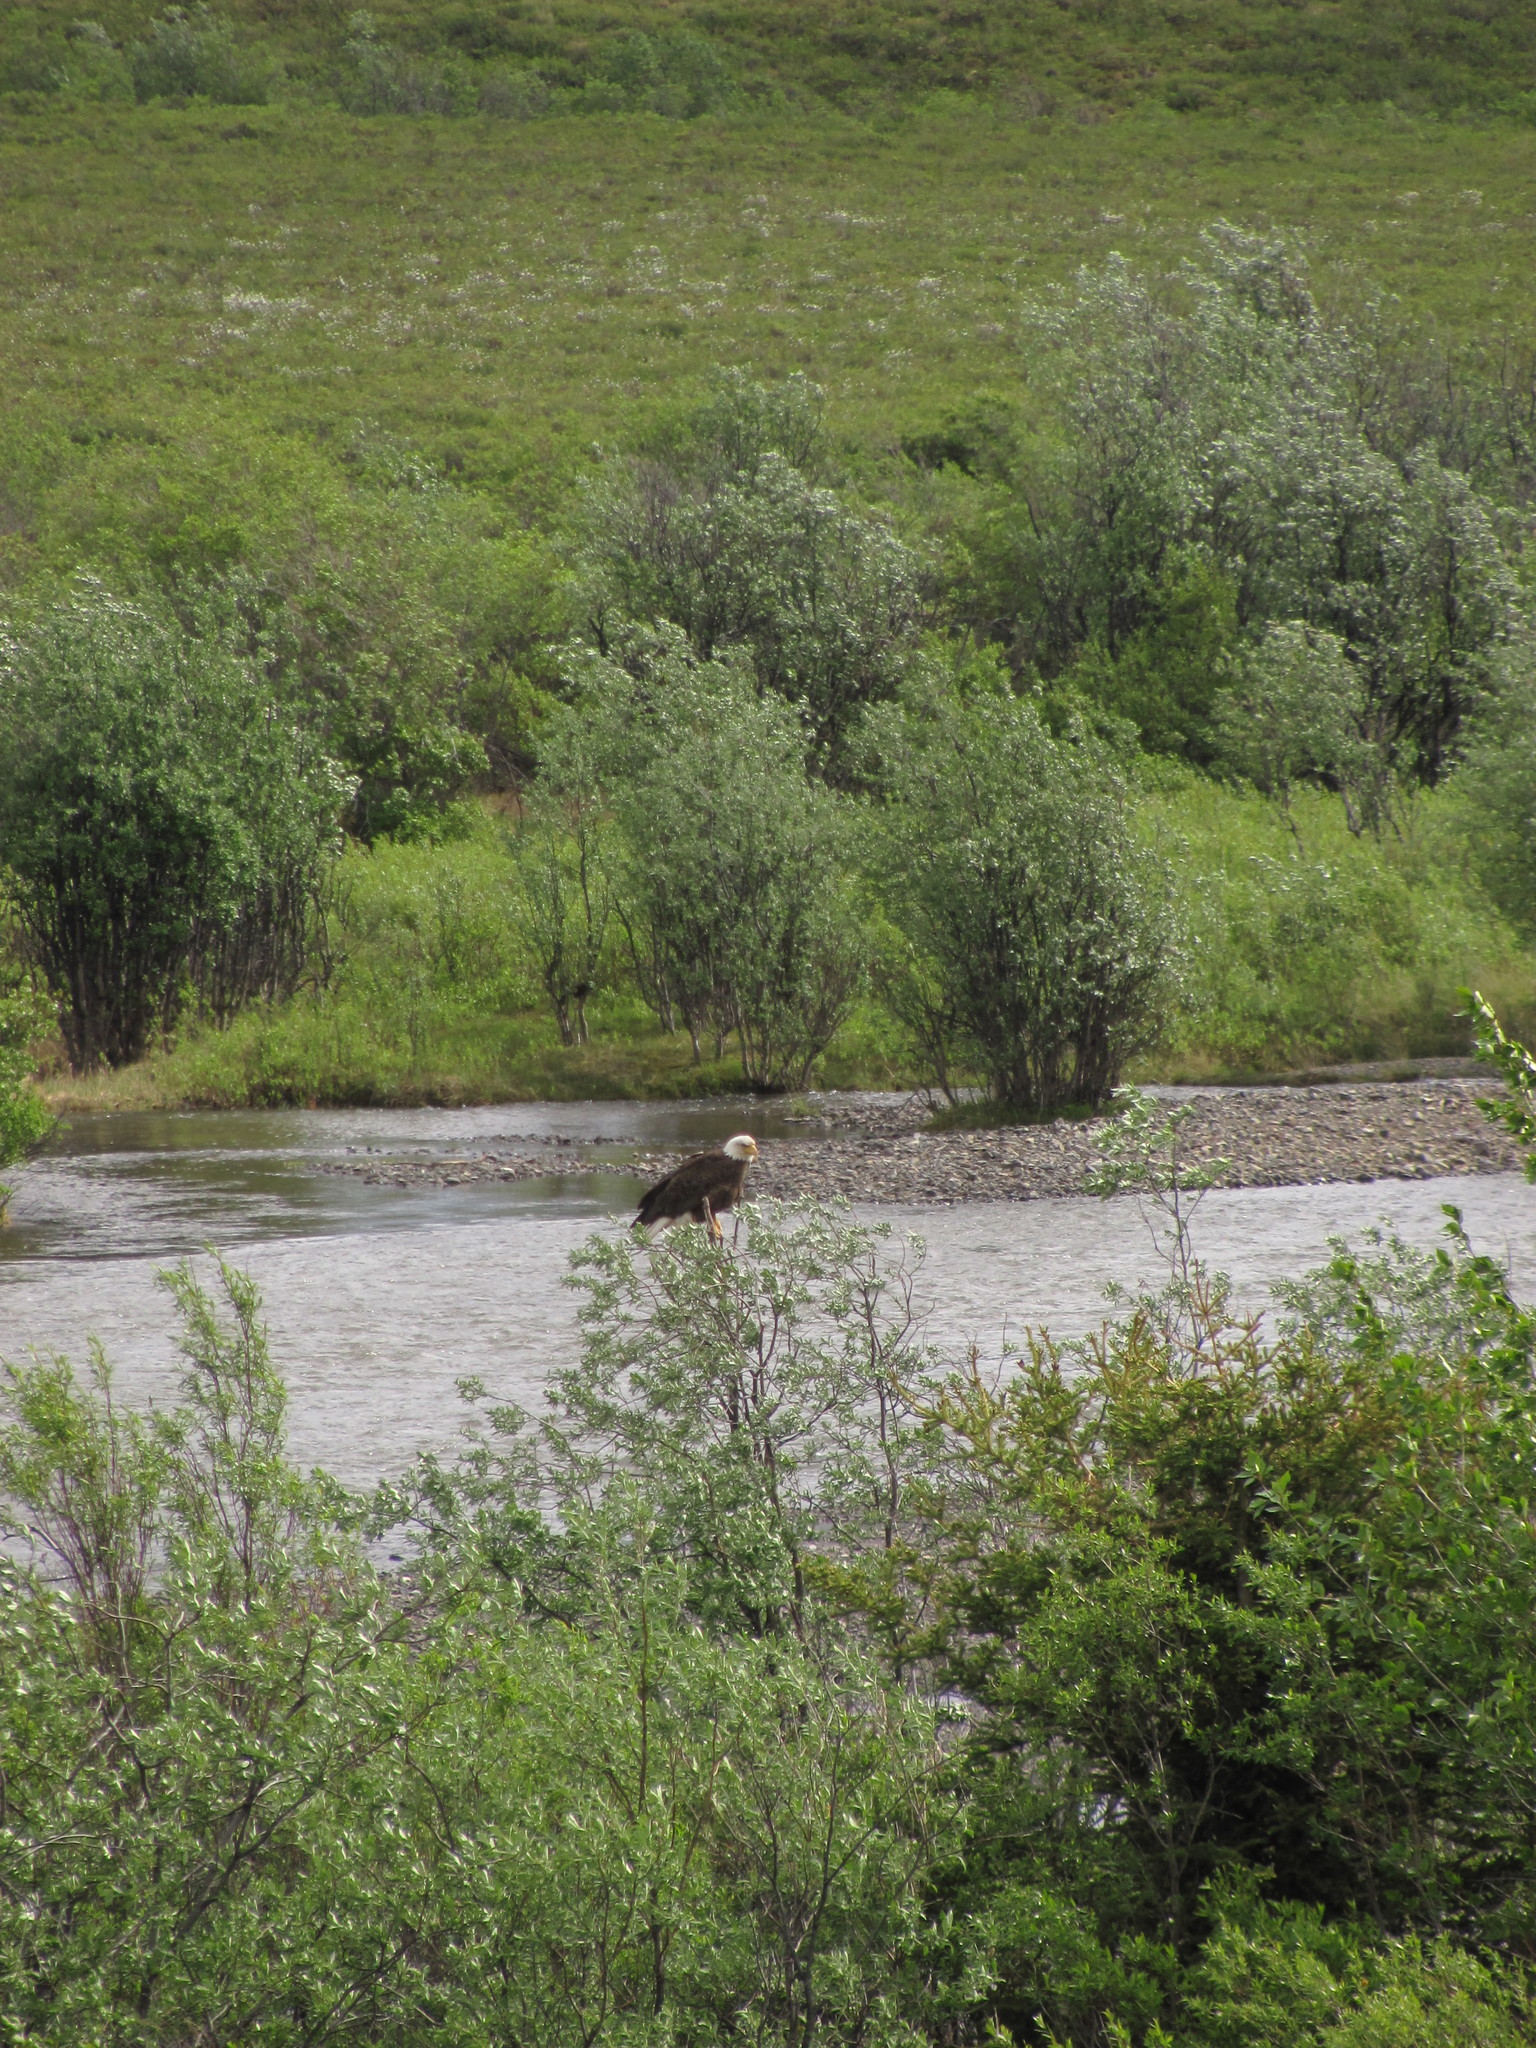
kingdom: Animalia
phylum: Chordata
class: Aves
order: Accipitriformes
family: Accipitridae
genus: Haliaeetus
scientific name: Haliaeetus leucocephalus
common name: Bald eagle
